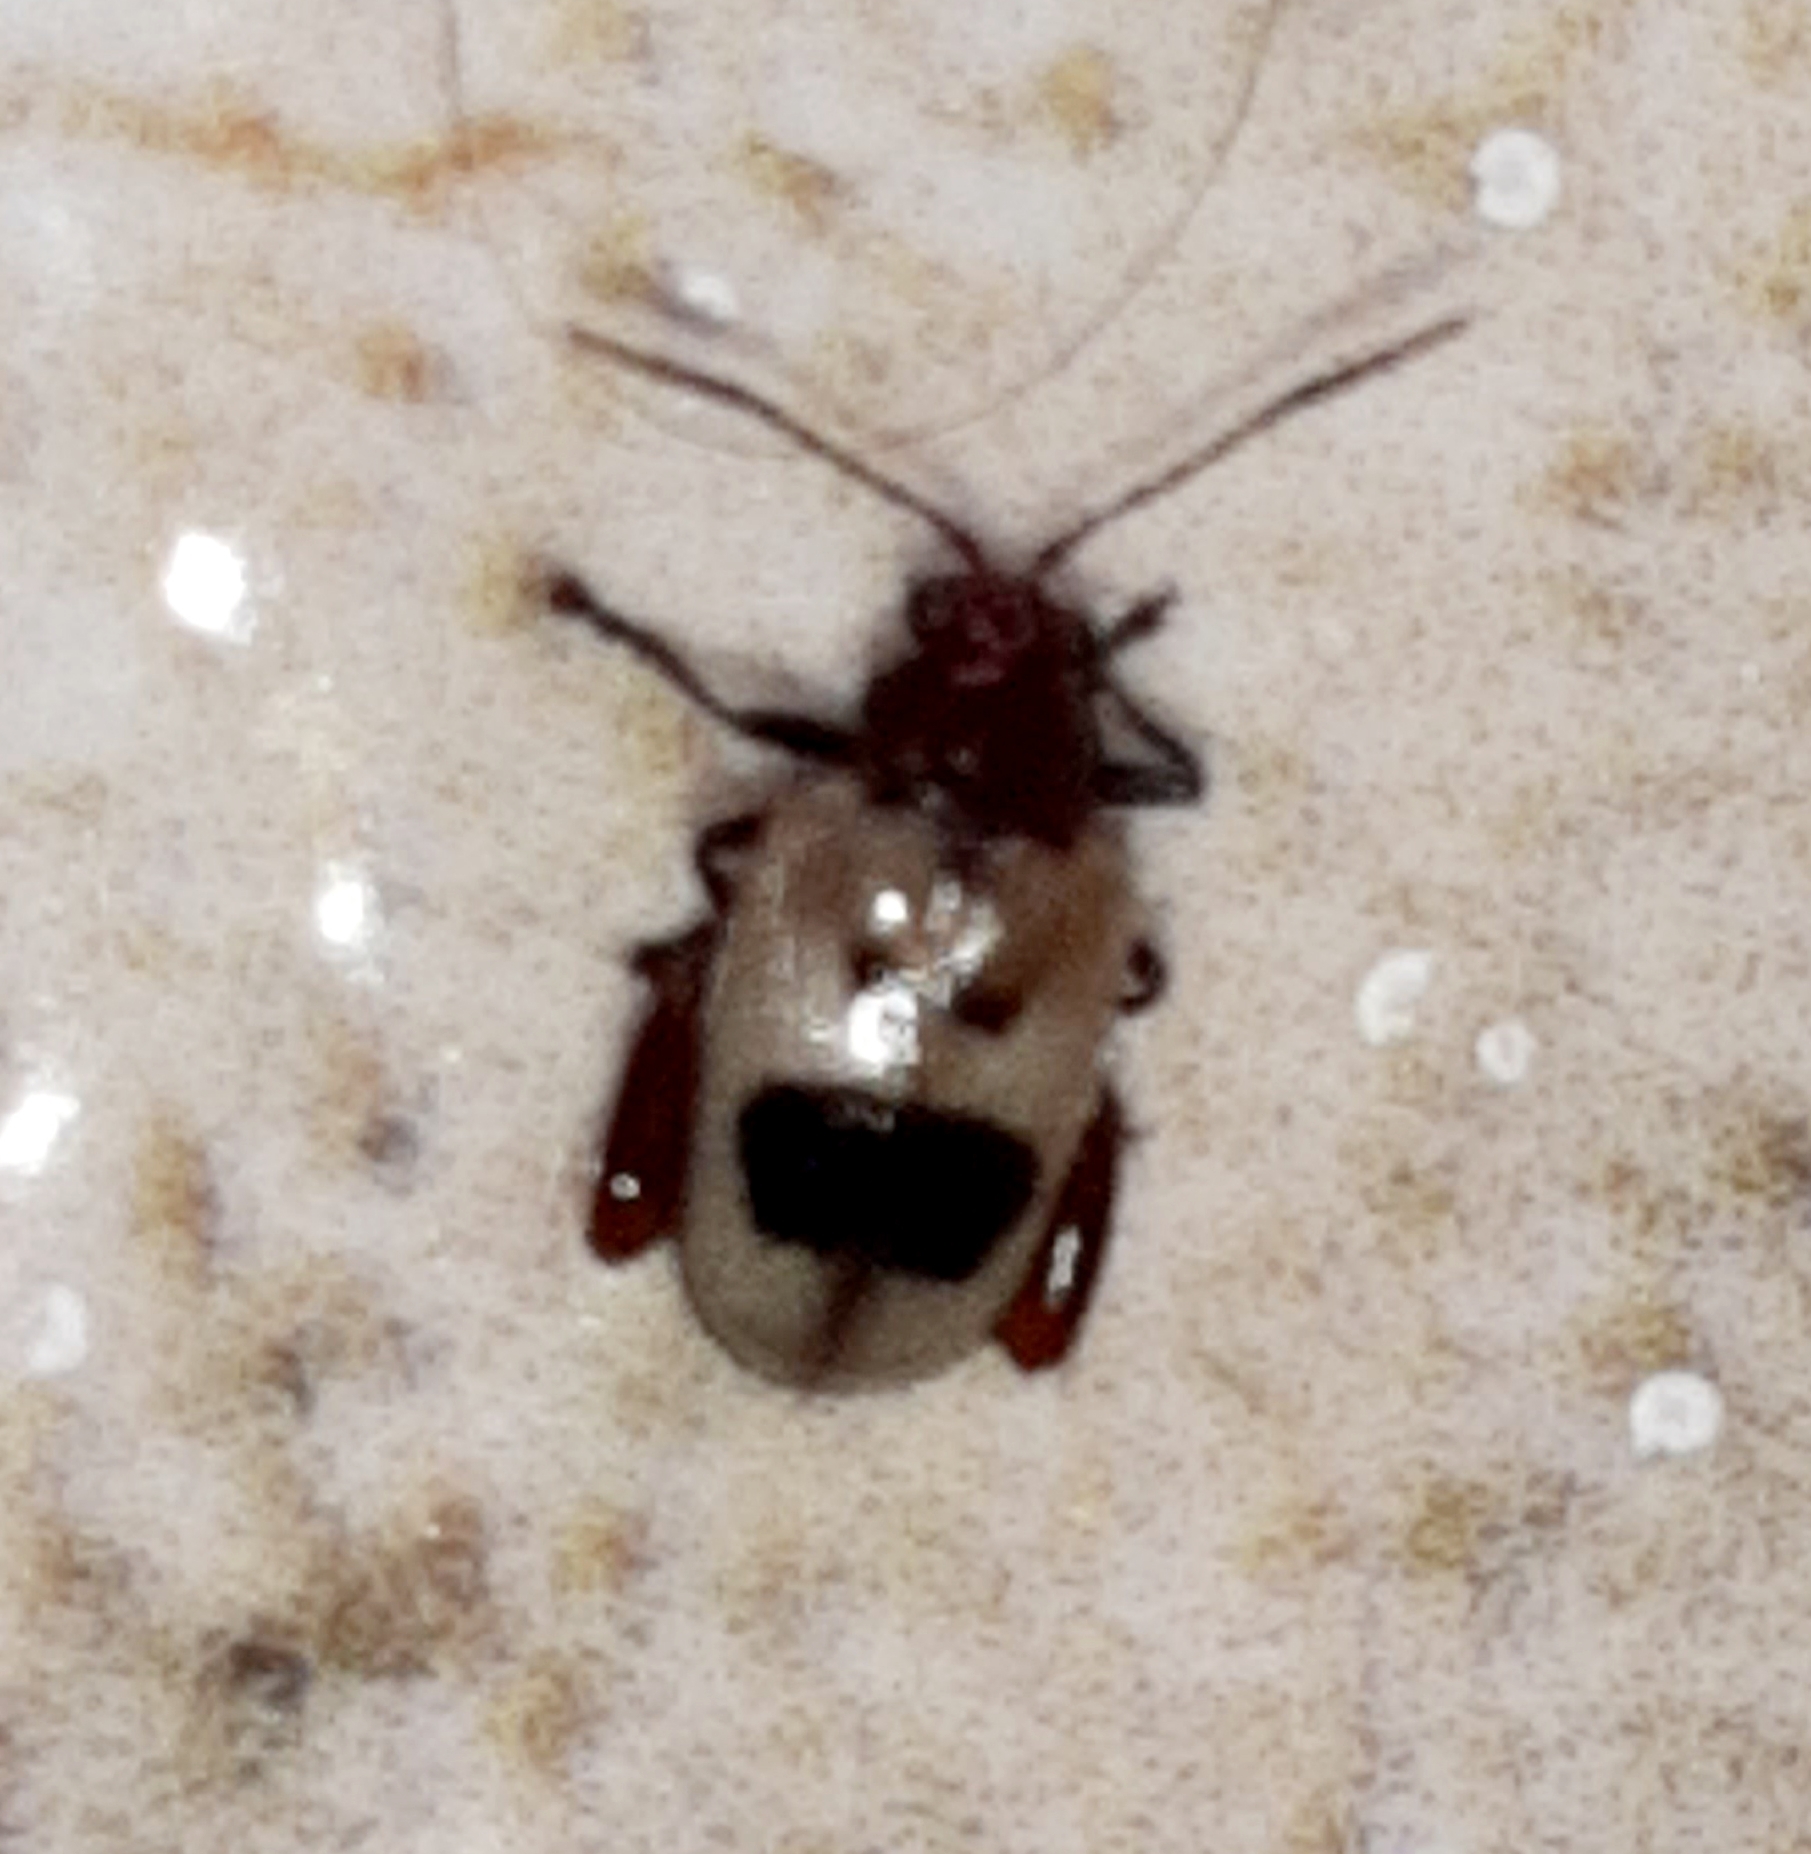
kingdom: Animalia
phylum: Arthropoda
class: Insecta
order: Coleoptera
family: Chrysomelidae
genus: Allochroma
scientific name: Allochroma
